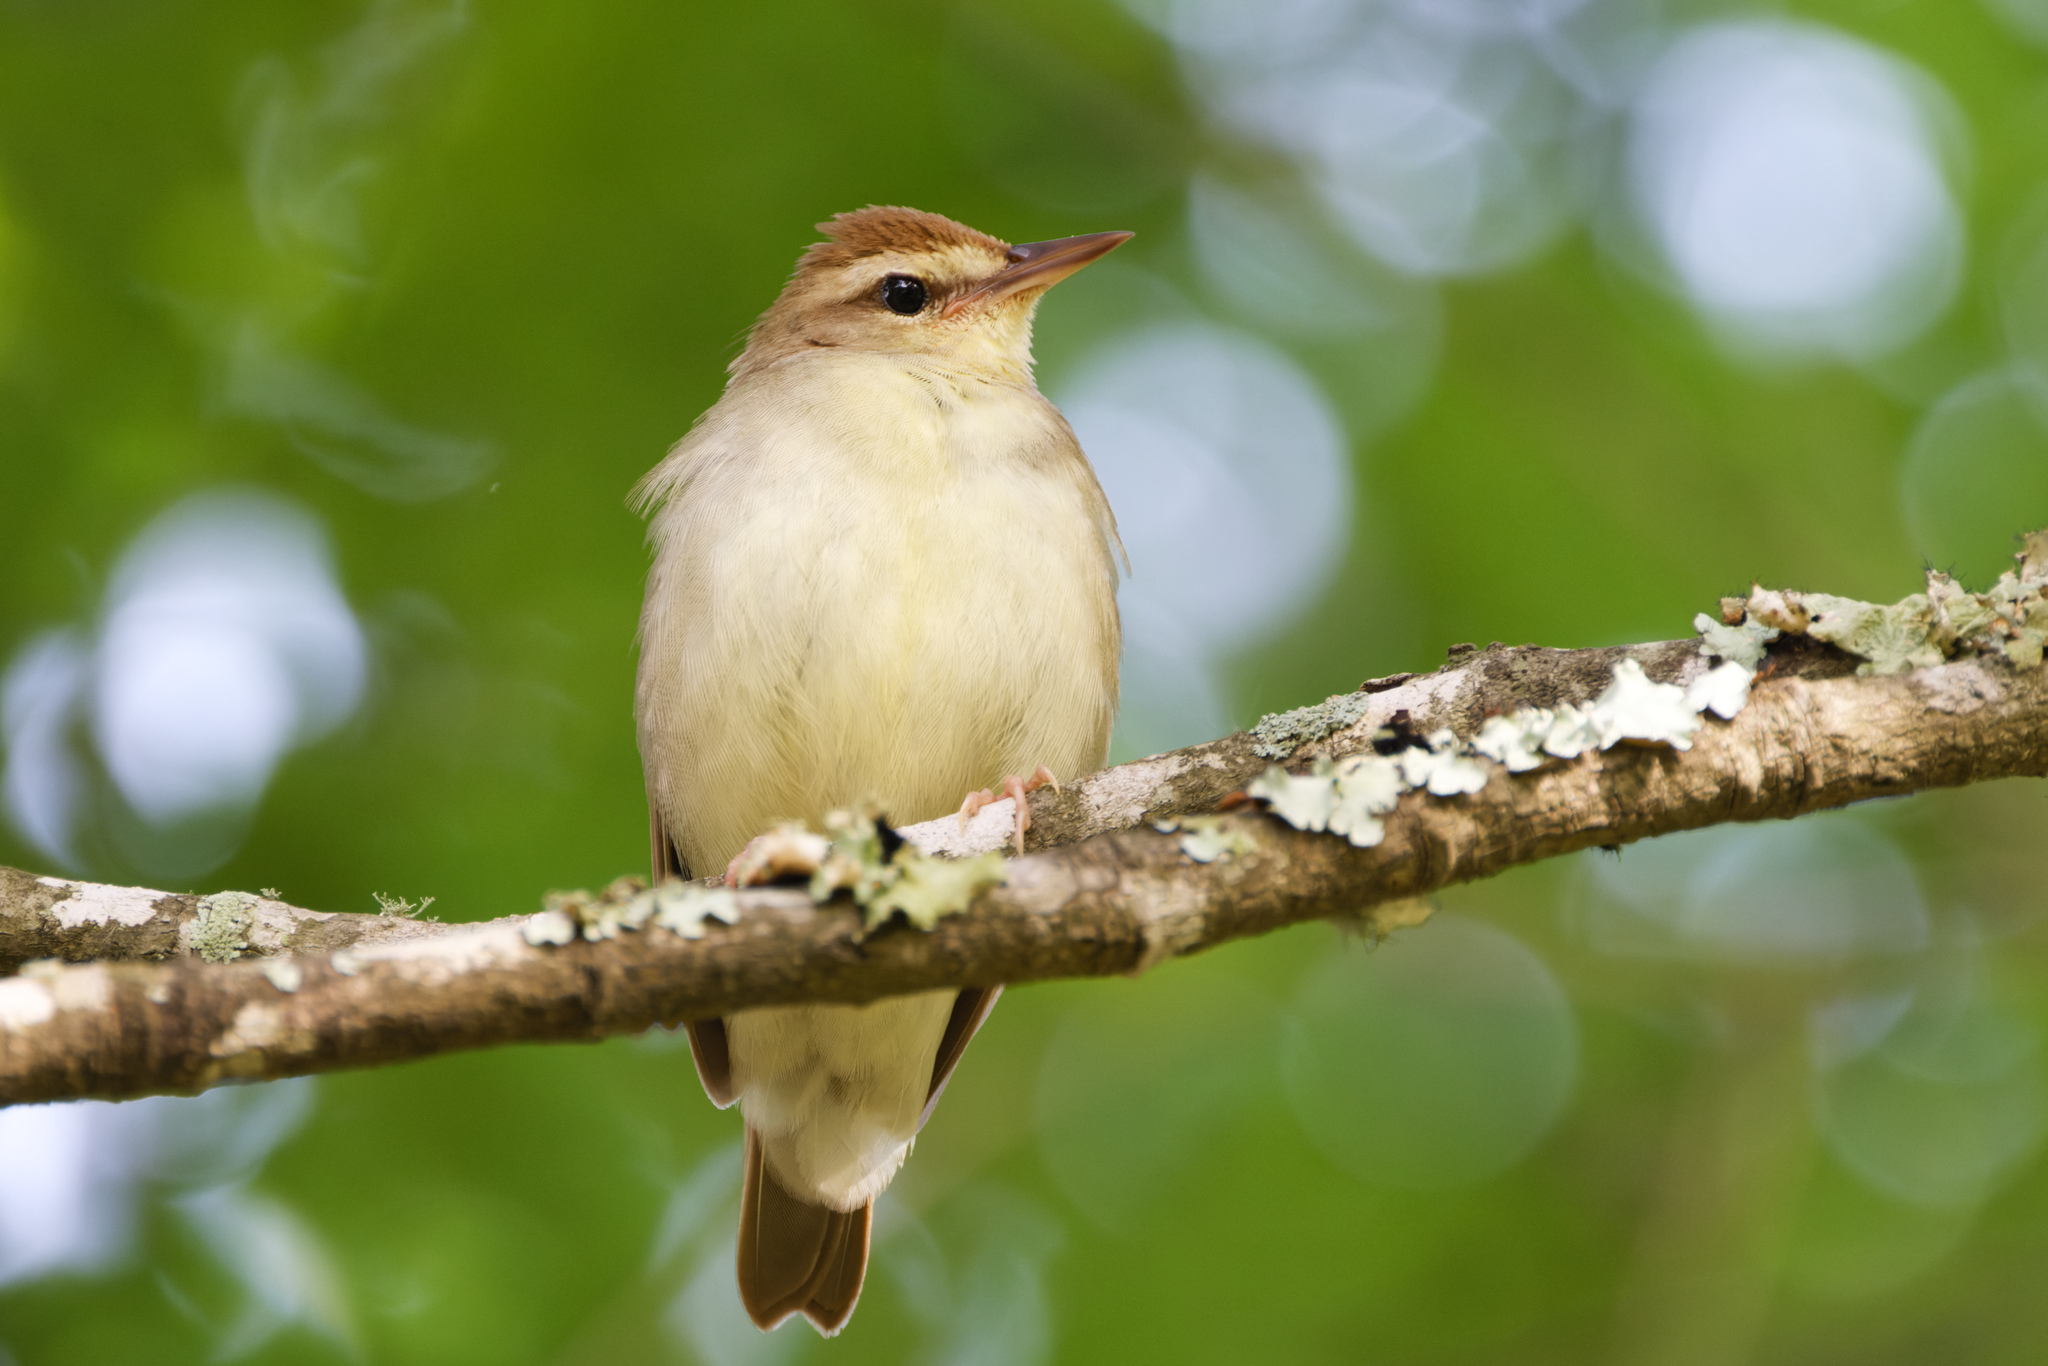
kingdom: Animalia
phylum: Chordata
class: Aves
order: Passeriformes
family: Parulidae
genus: Limnothlypis
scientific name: Limnothlypis swainsonii
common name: Swainson's warbler
